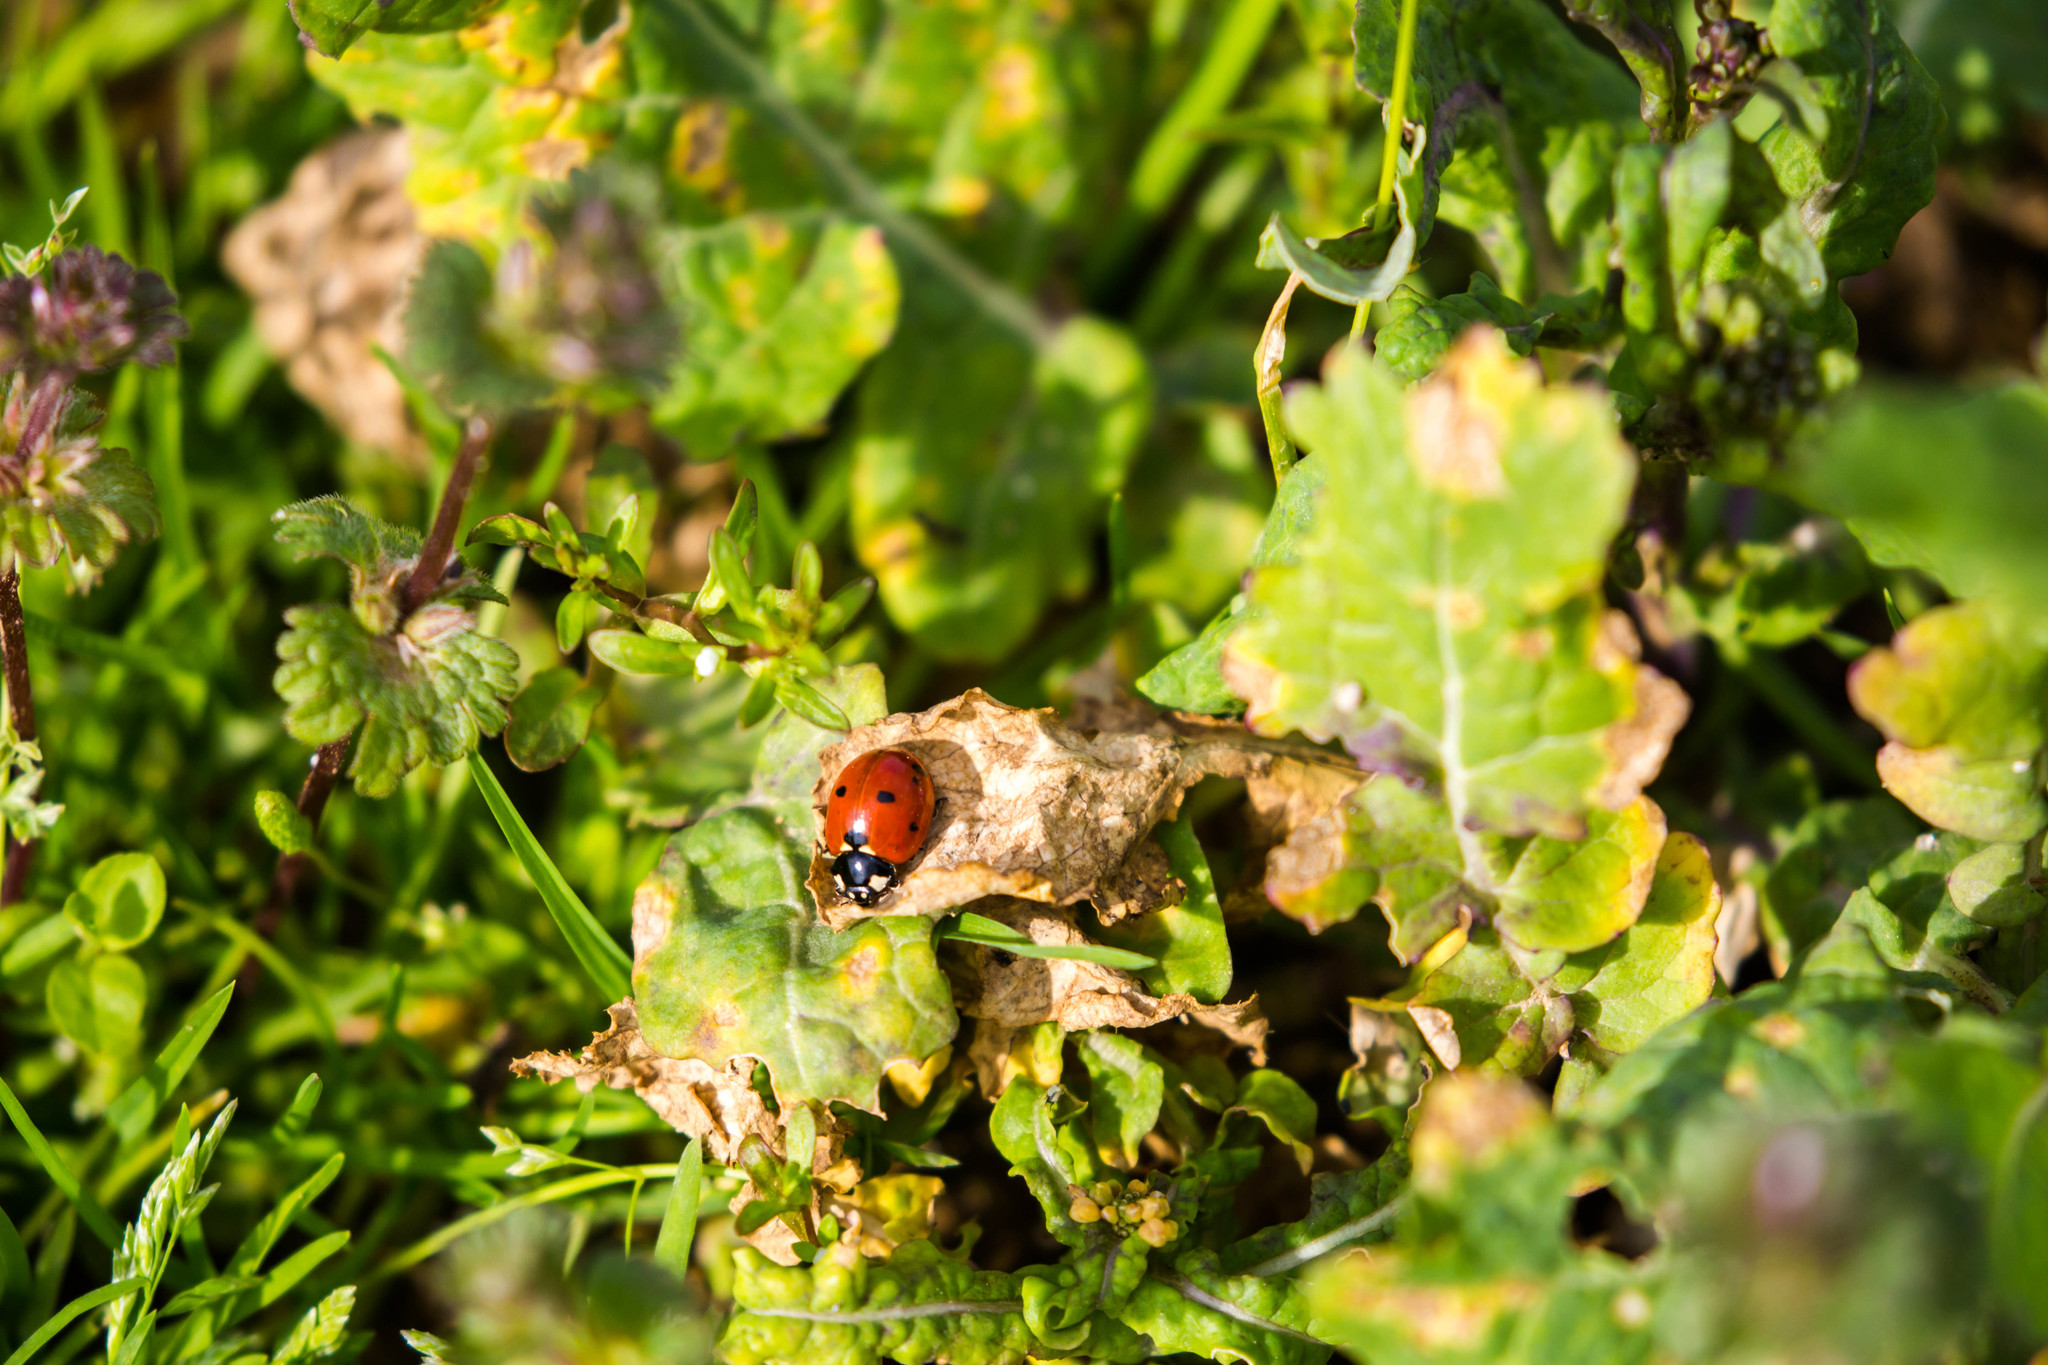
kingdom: Animalia
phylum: Arthropoda
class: Insecta
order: Coleoptera
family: Coccinellidae
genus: Coccinella
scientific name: Coccinella septempunctata
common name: Sevenspotted lady beetle
